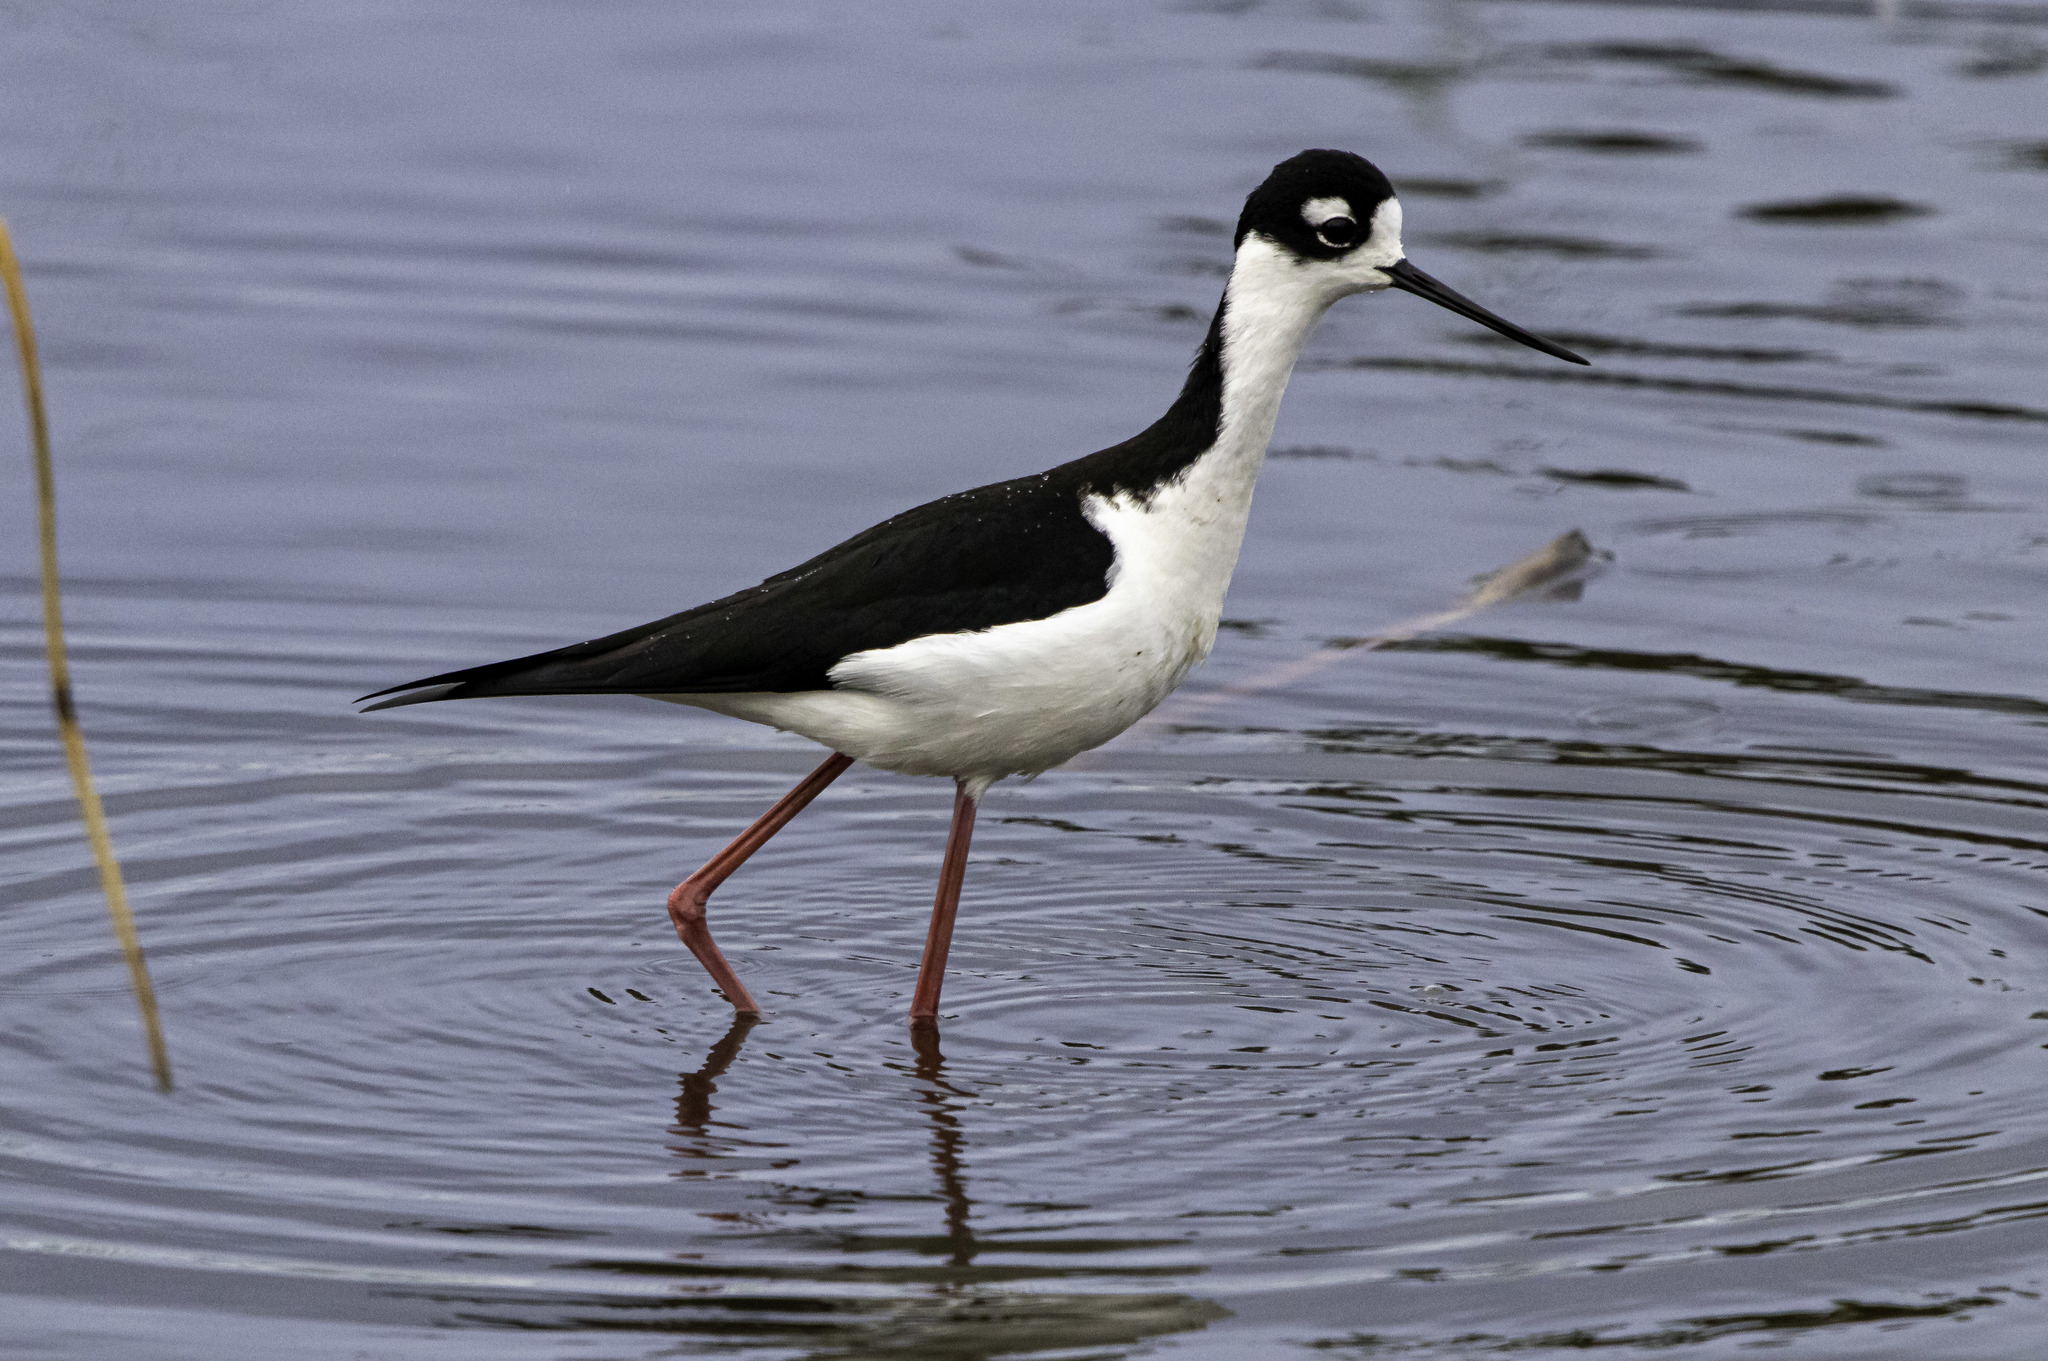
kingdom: Animalia
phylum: Chordata
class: Aves
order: Charadriiformes
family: Recurvirostridae
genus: Himantopus
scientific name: Himantopus mexicanus
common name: Black-necked stilt
